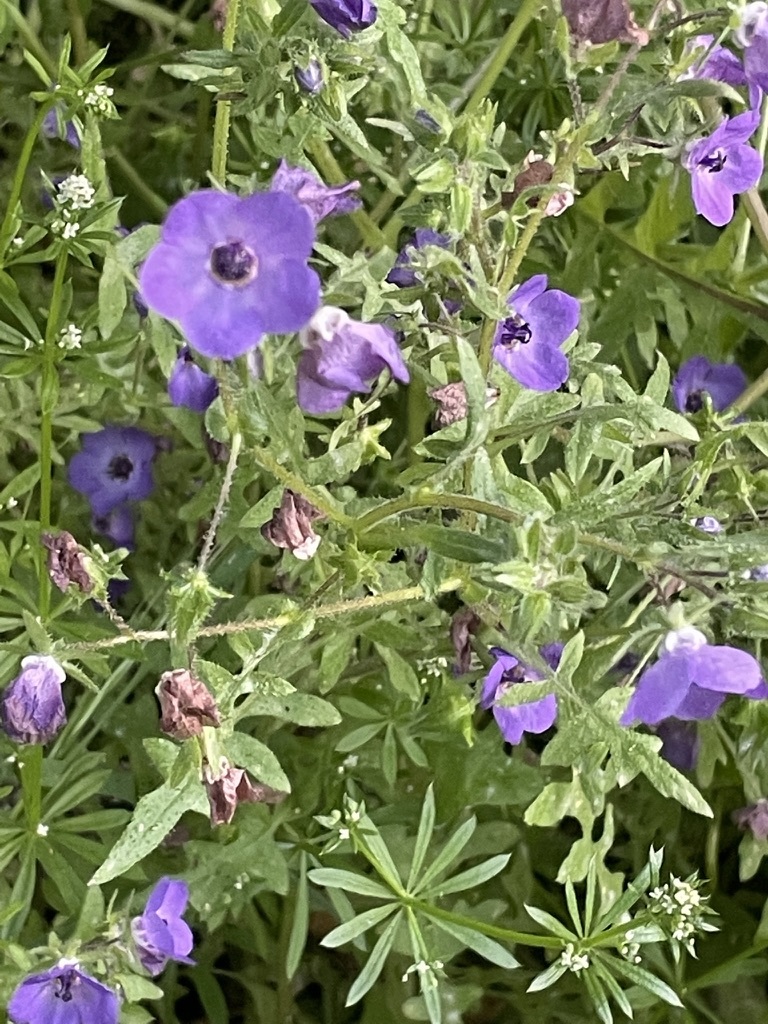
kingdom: Plantae
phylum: Tracheophyta
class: Magnoliopsida
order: Boraginales
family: Hydrophyllaceae
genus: Pholistoma
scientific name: Pholistoma auritum
